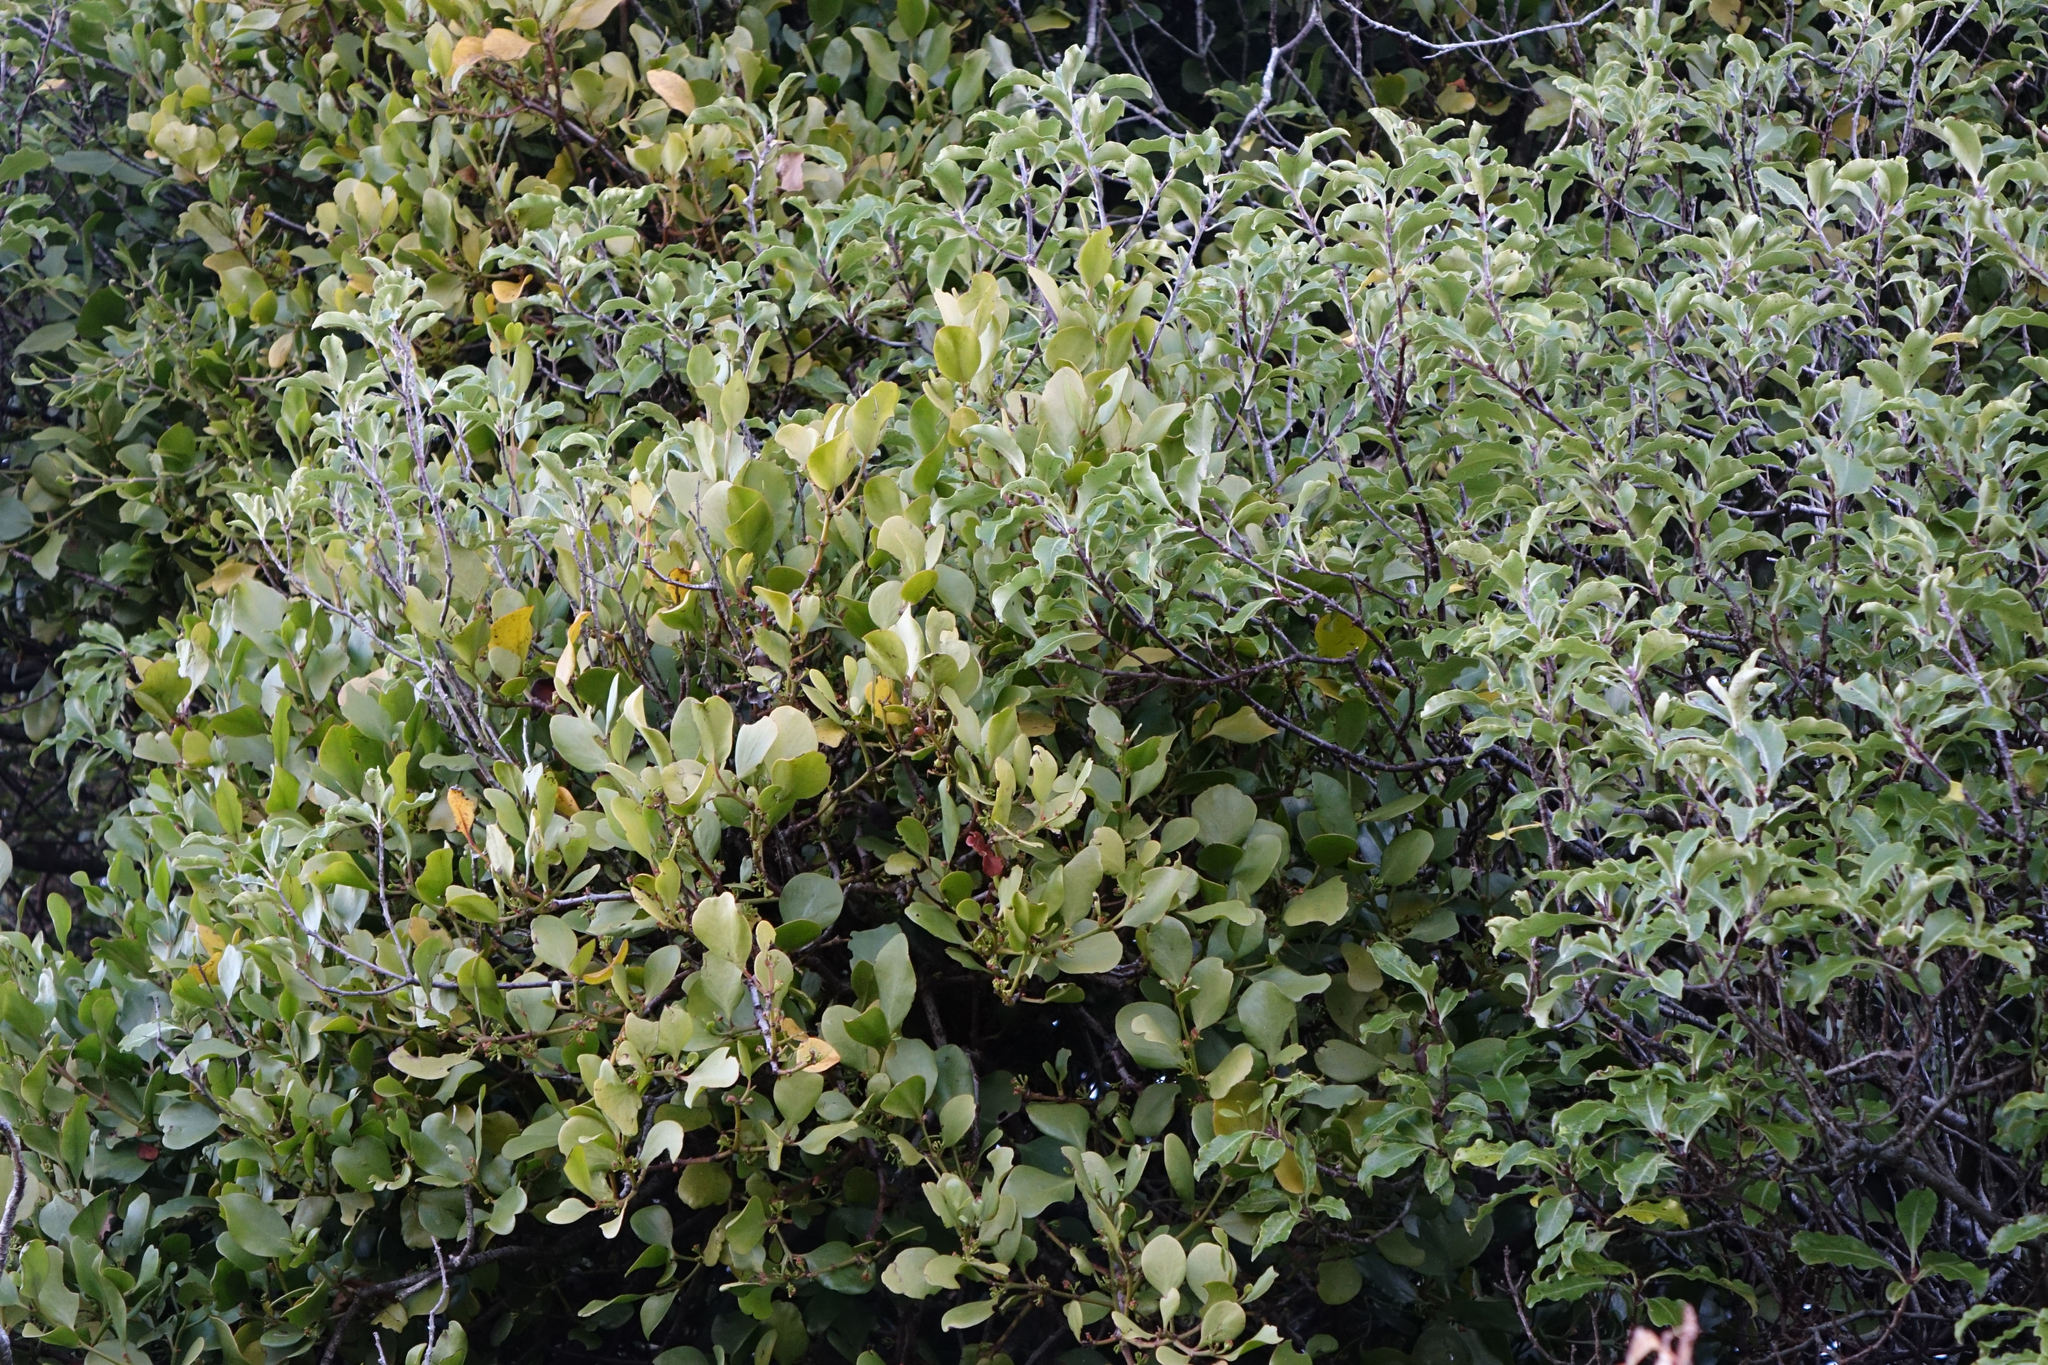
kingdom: Plantae
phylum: Tracheophyta
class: Magnoliopsida
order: Santalales
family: Loranthaceae
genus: Ileostylus
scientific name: Ileostylus micranthus
